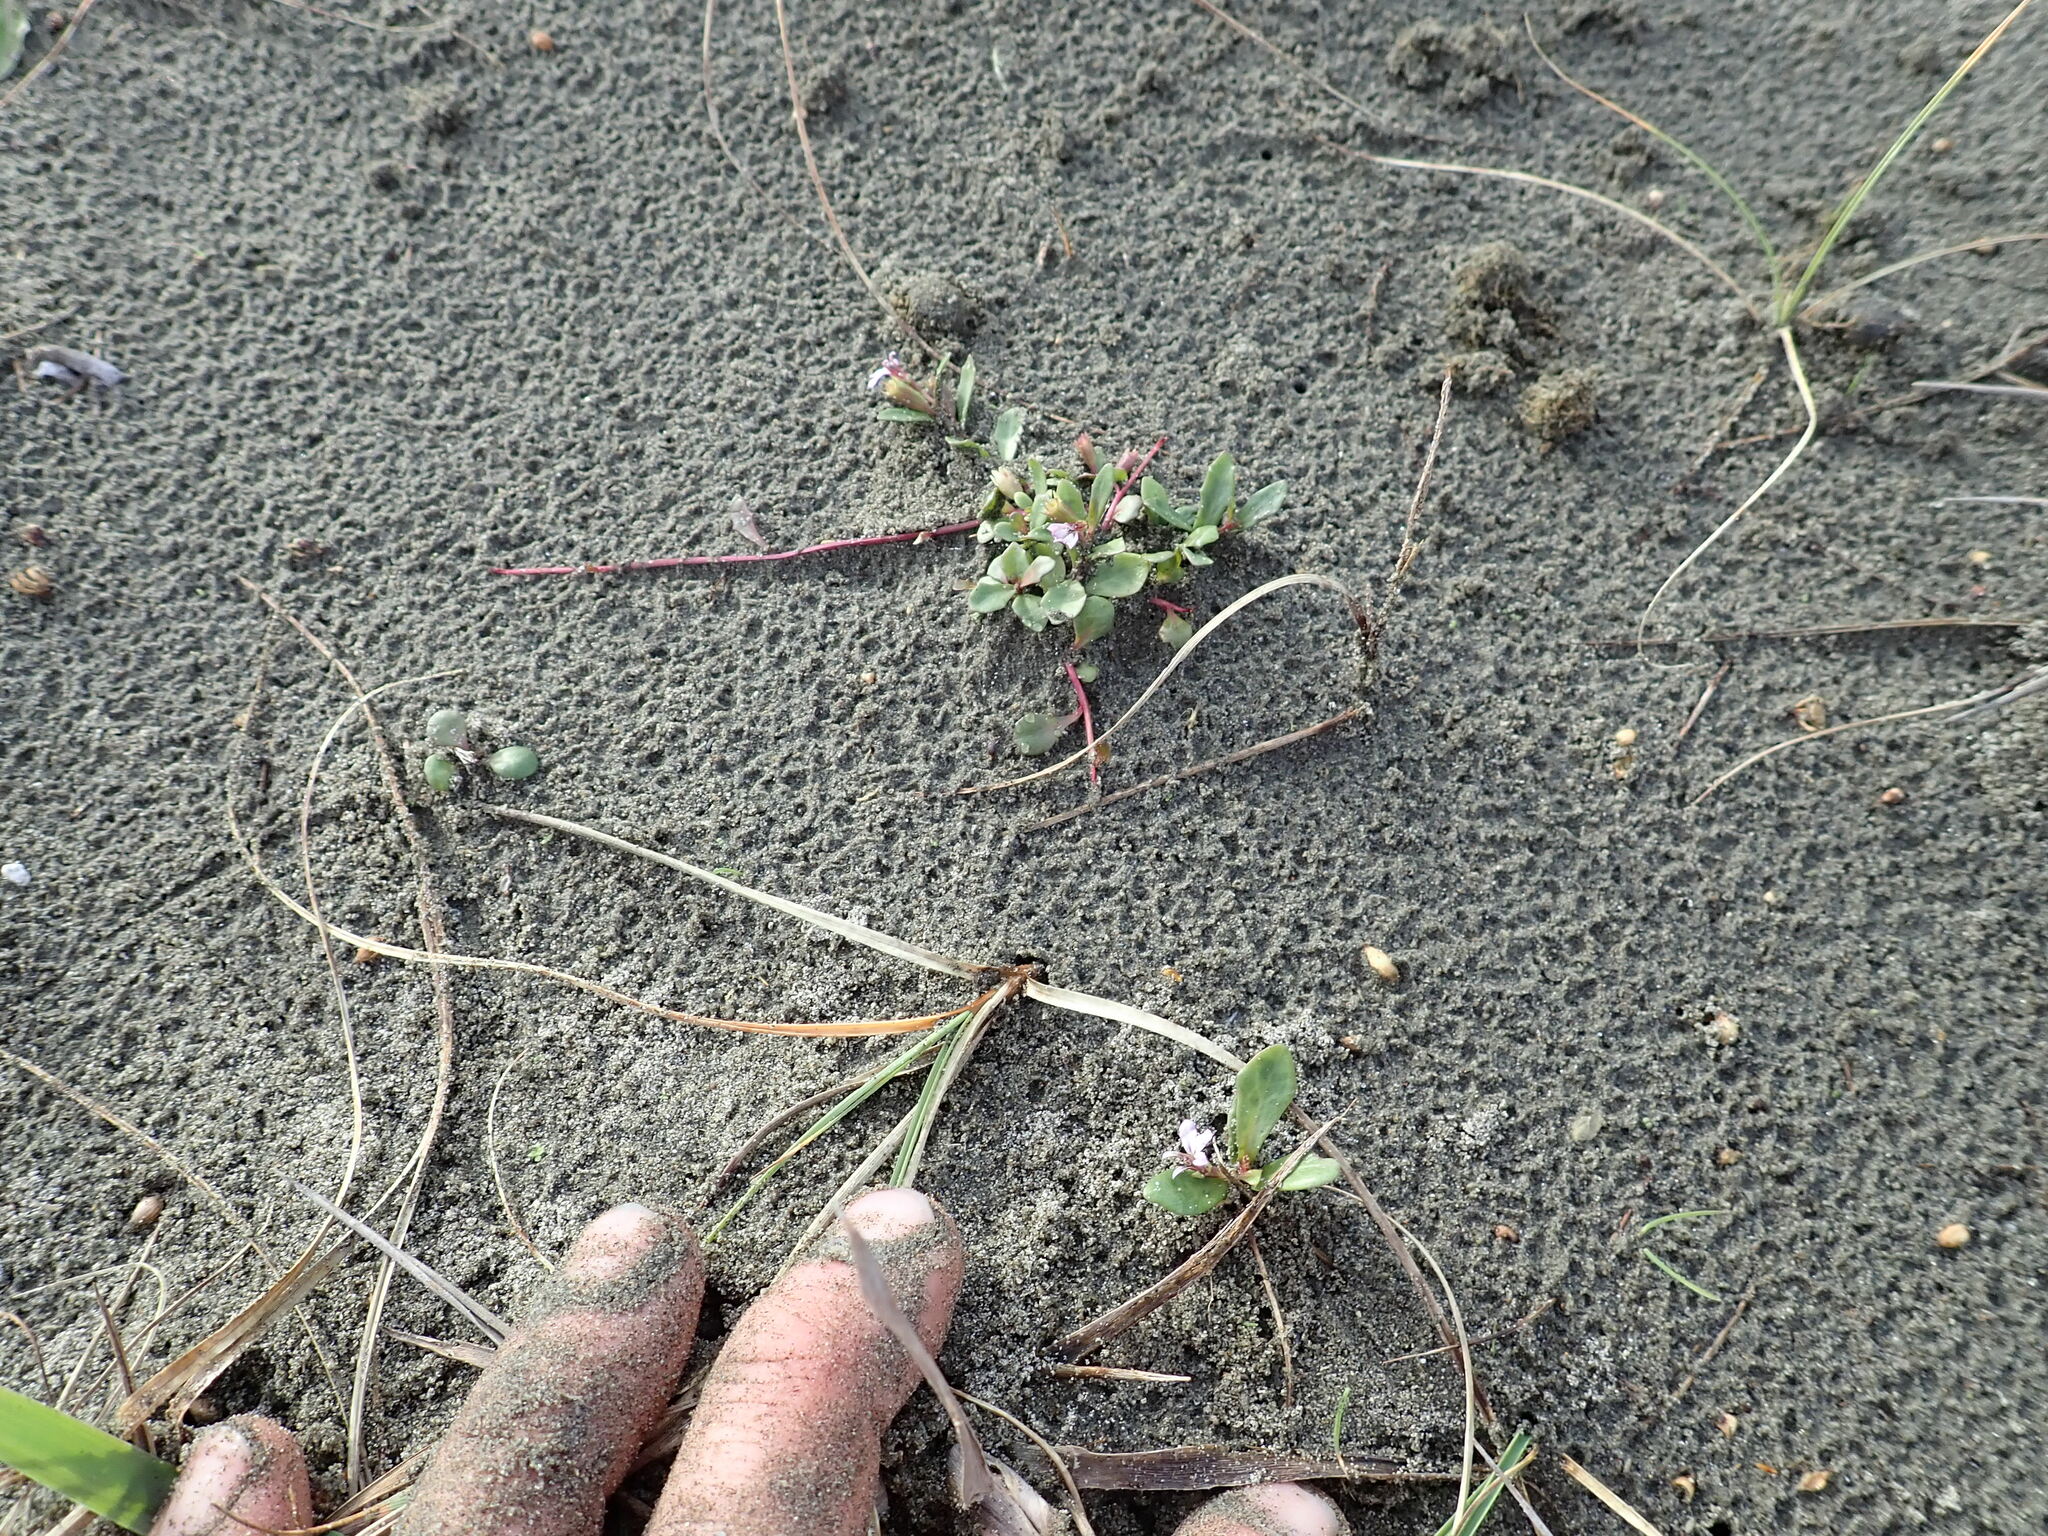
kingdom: Plantae
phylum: Tracheophyta
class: Magnoliopsida
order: Asterales
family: Campanulaceae
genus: Lobelia
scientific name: Lobelia anceps
